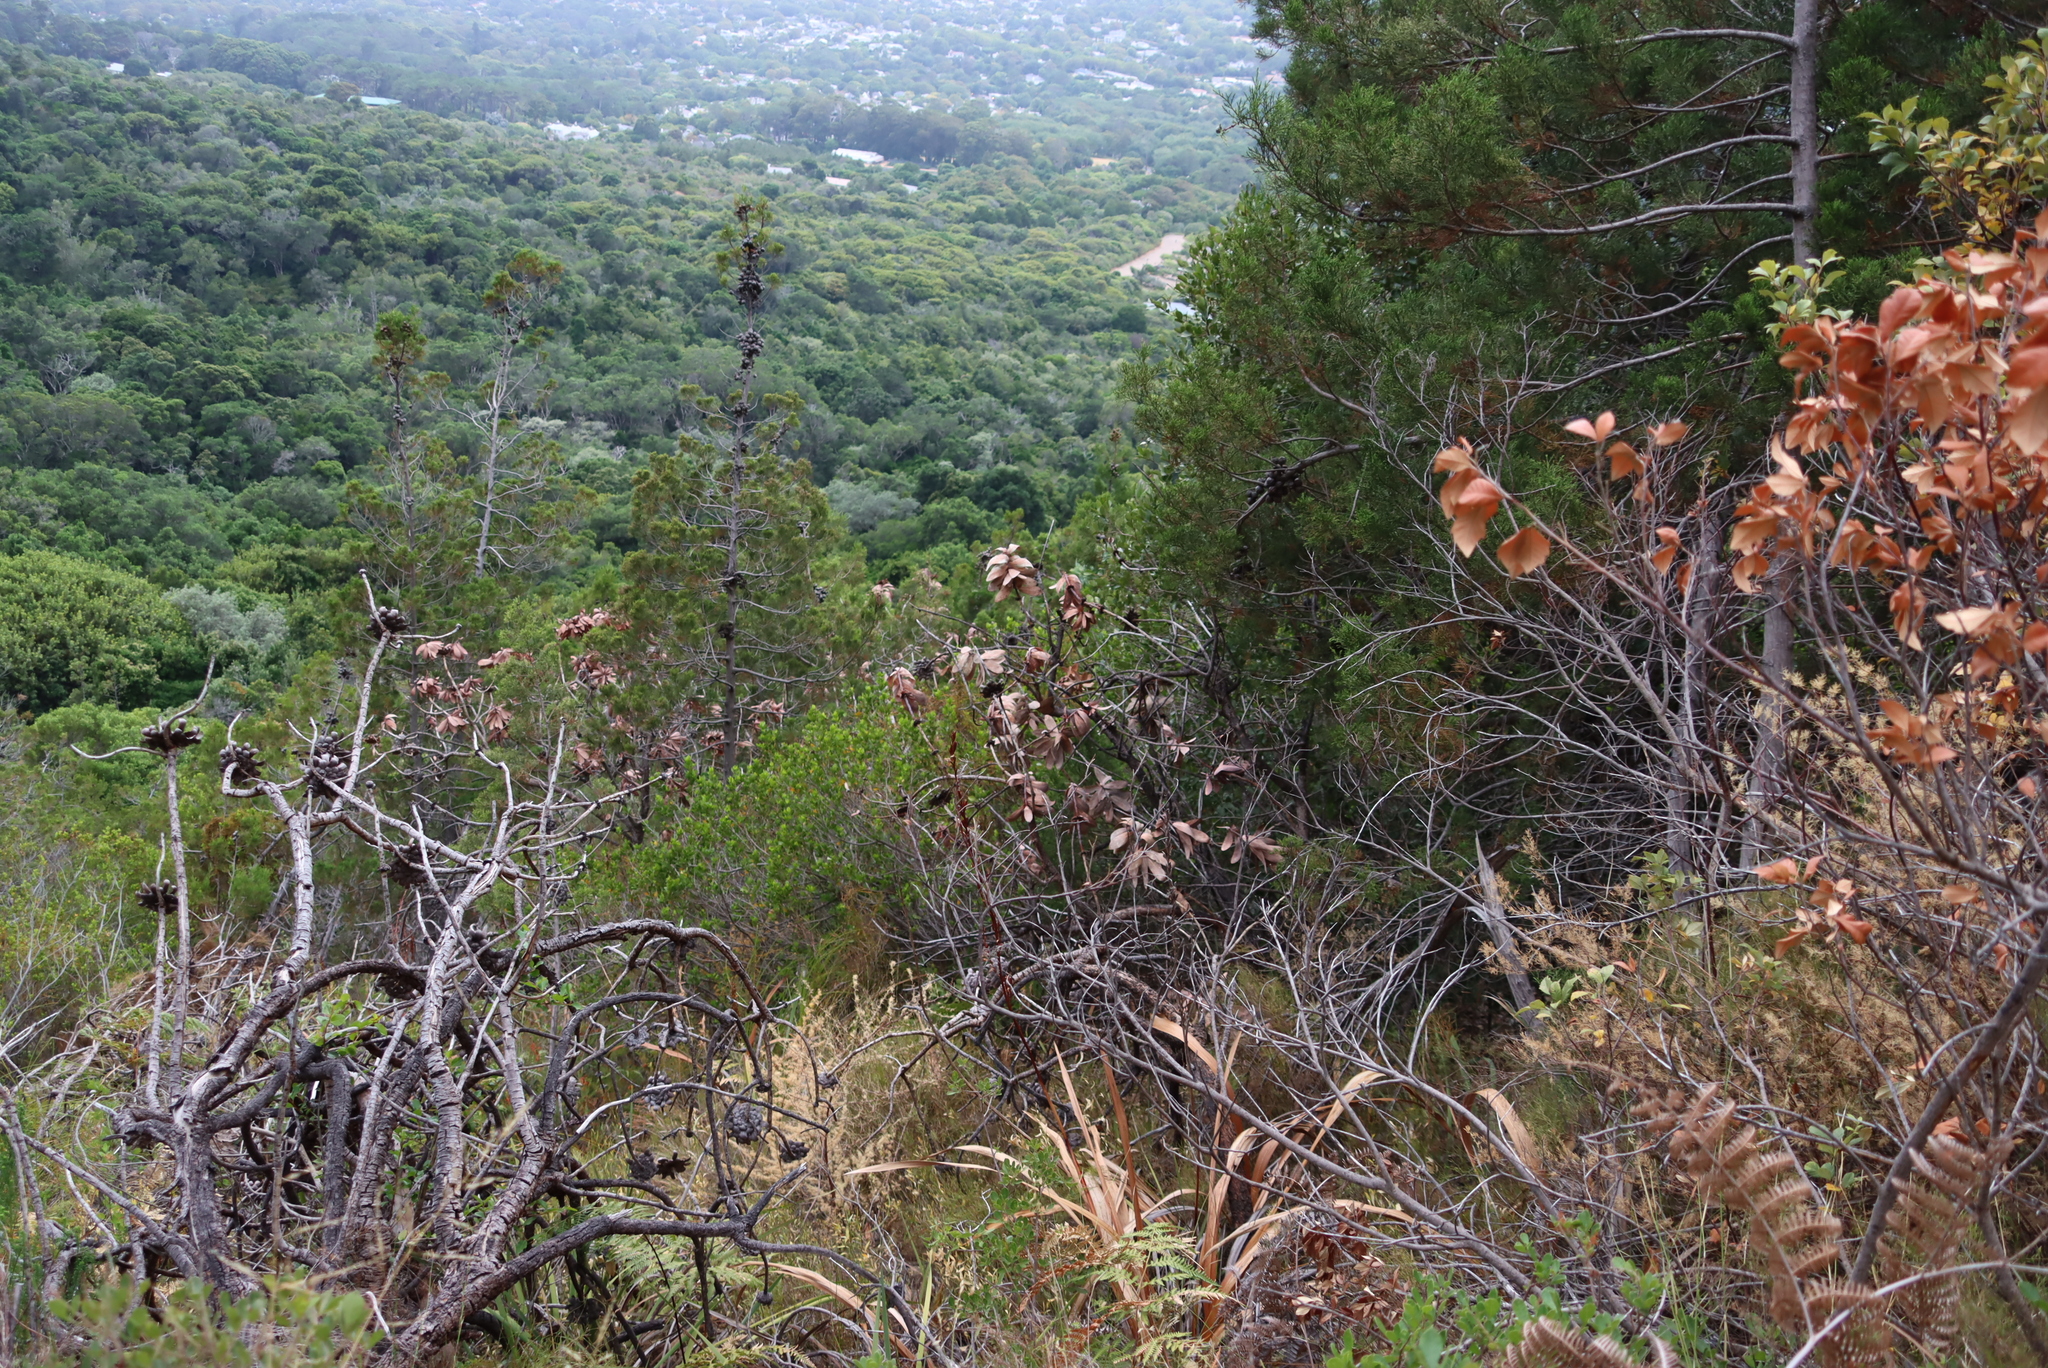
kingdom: Plantae
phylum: Tracheophyta
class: Magnoliopsida
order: Proteales
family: Proteaceae
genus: Protea
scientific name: Protea nitida
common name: Tree protea
